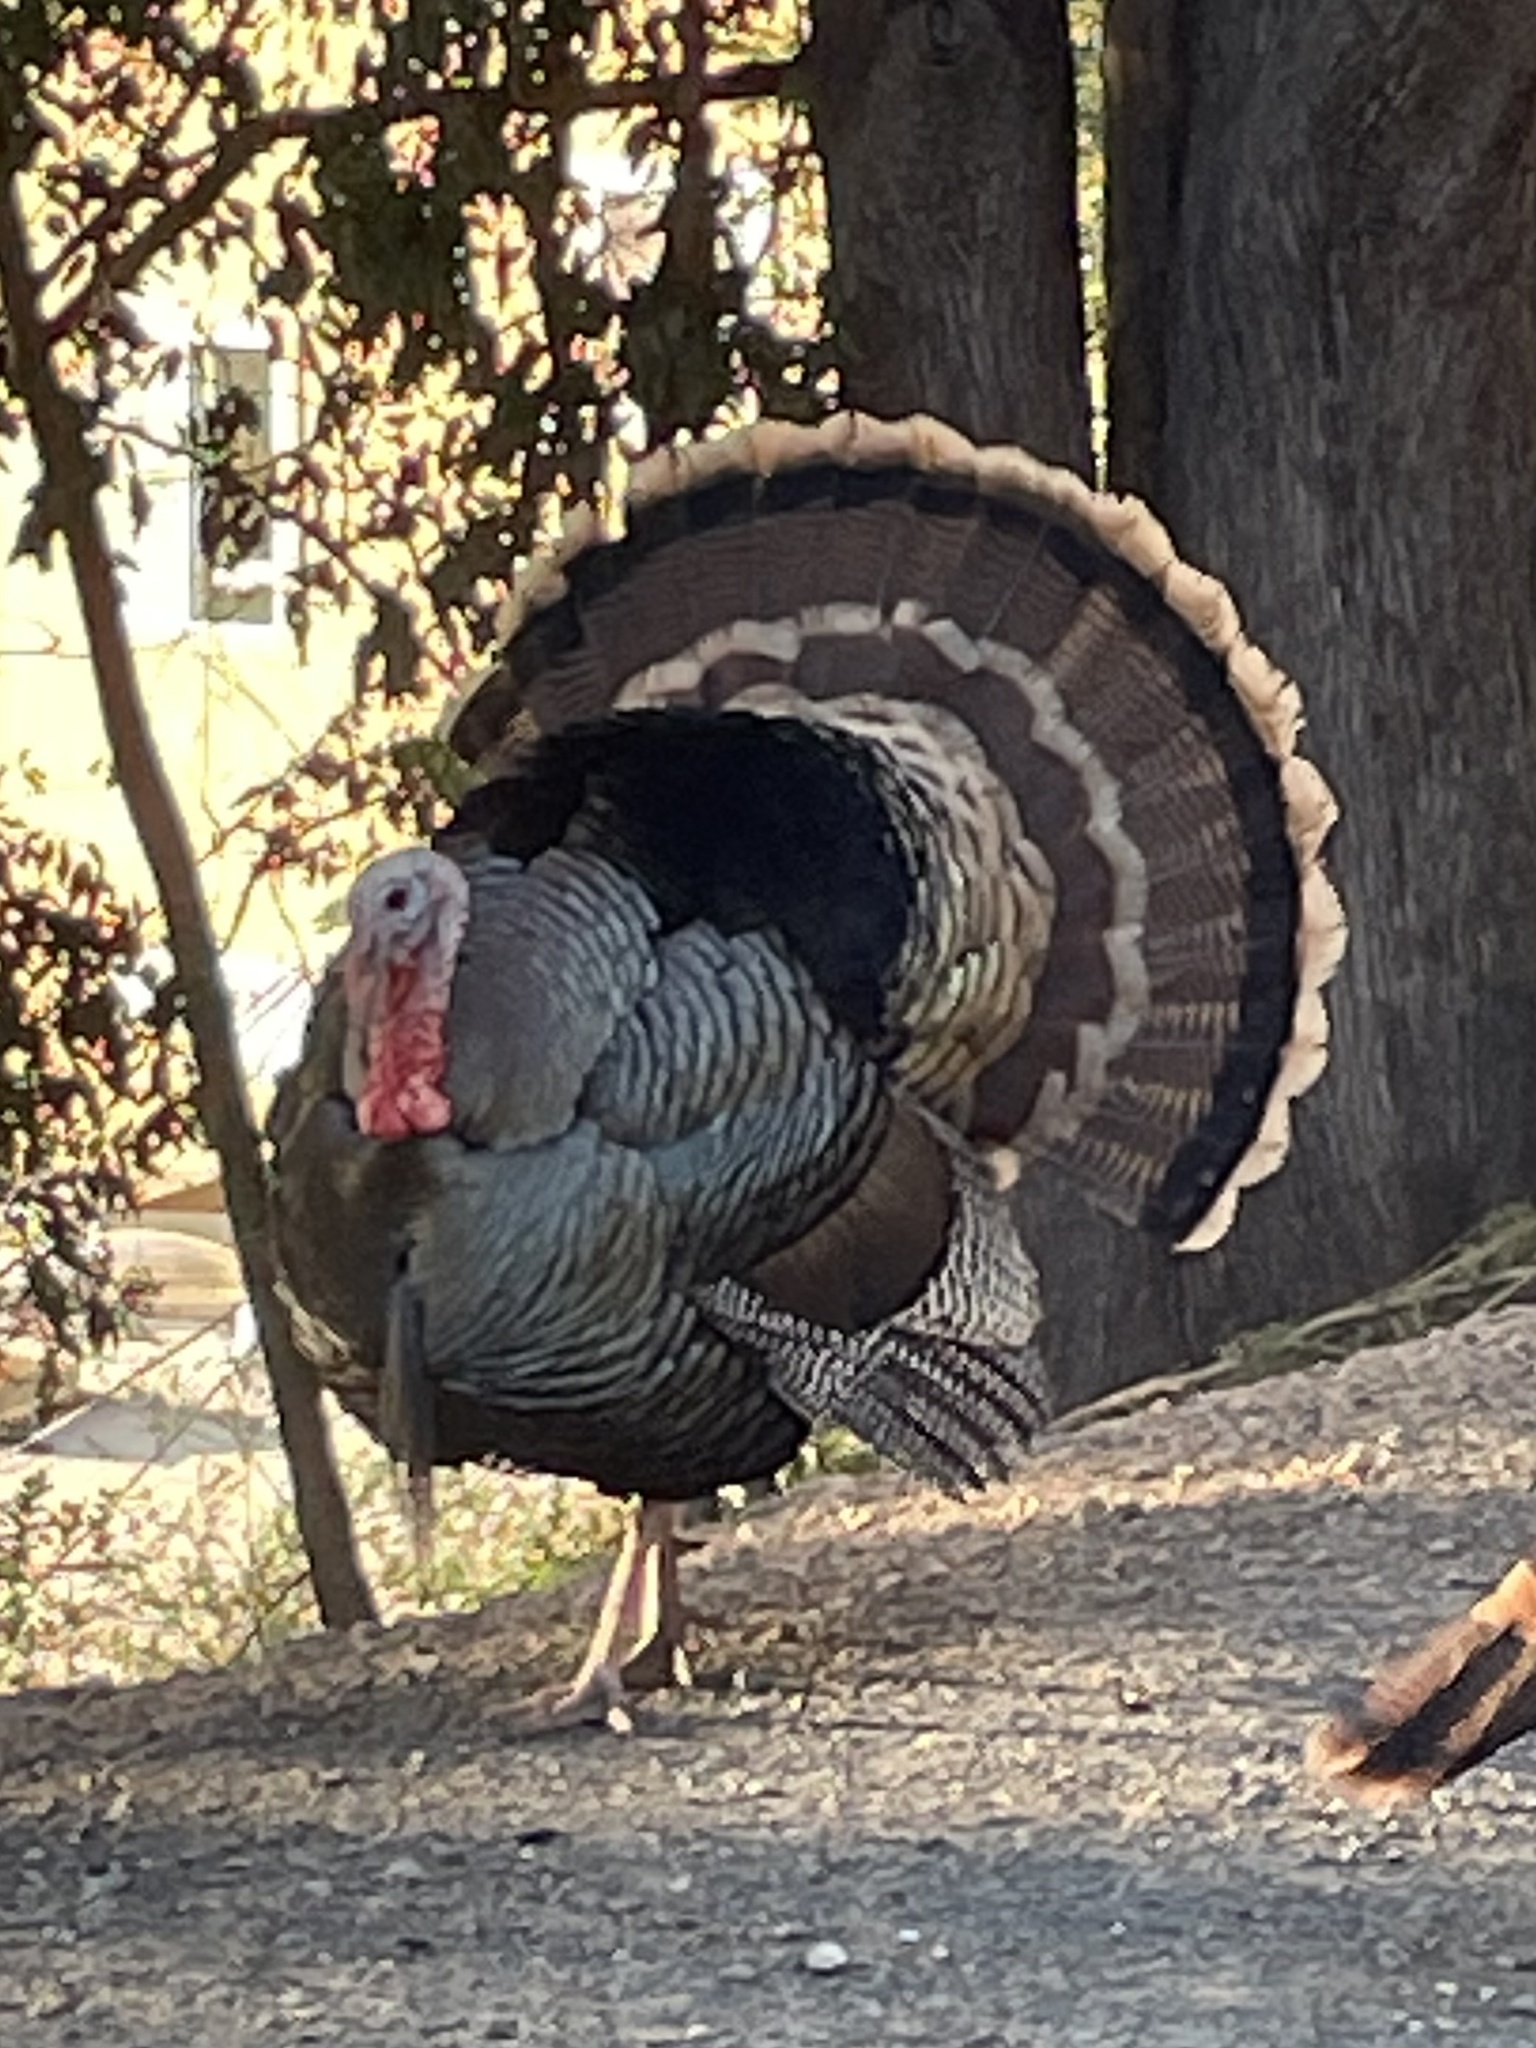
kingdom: Animalia
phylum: Chordata
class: Aves
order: Galliformes
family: Phasianidae
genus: Meleagris
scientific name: Meleagris gallopavo
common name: Wild turkey
